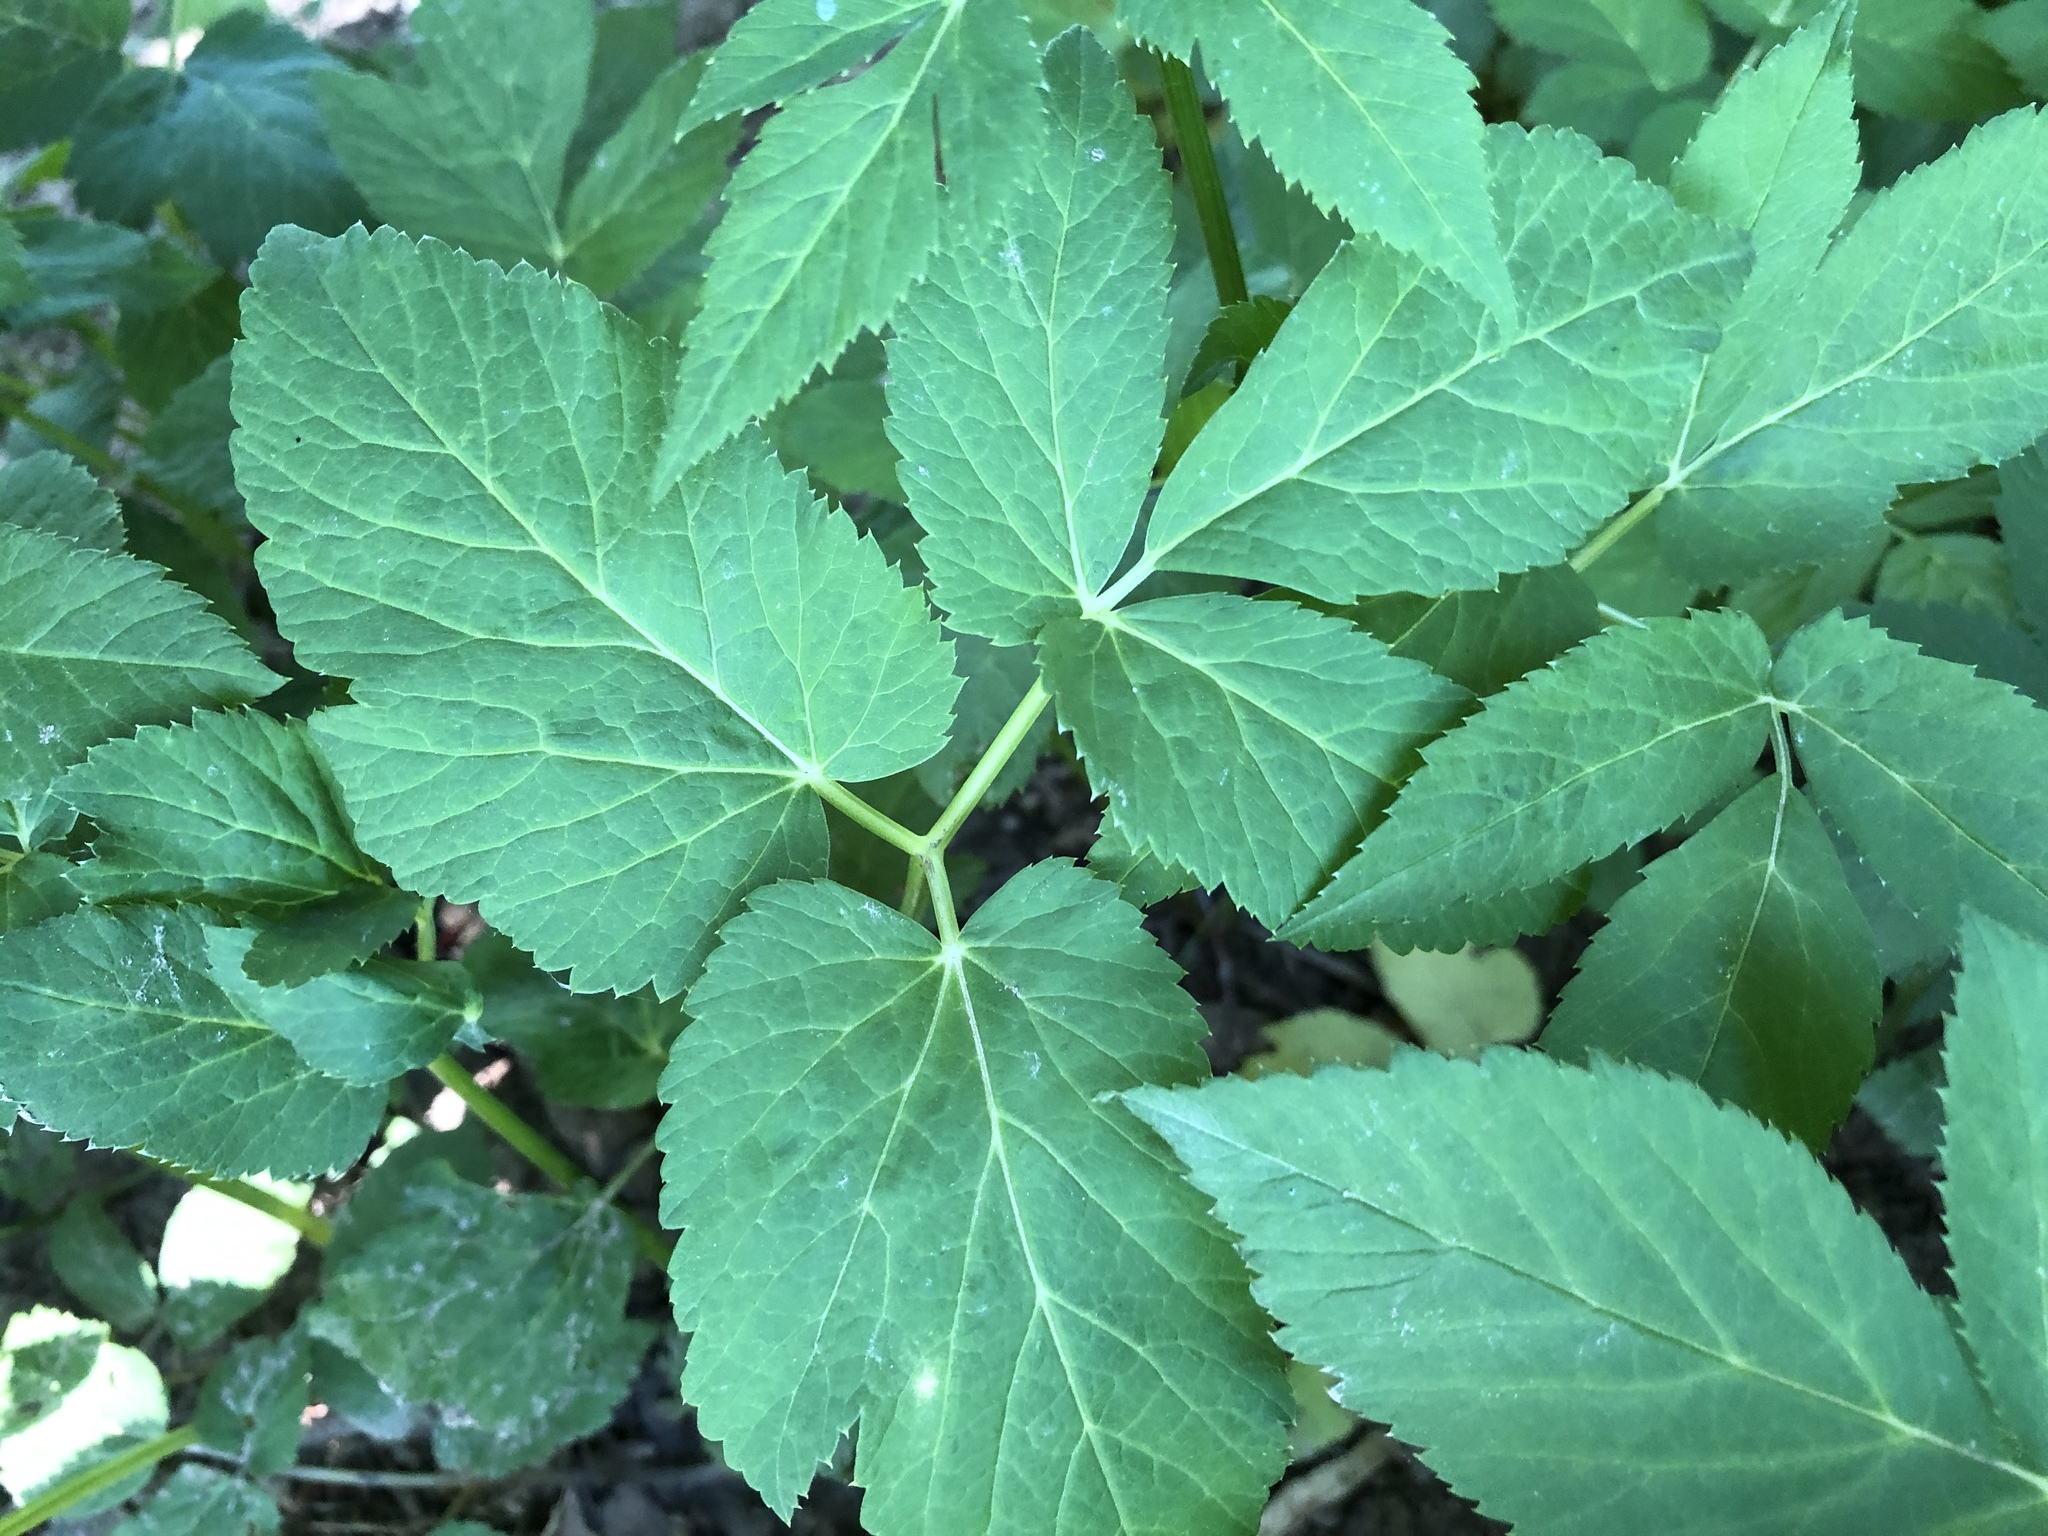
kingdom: Plantae
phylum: Tracheophyta
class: Magnoliopsida
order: Apiales
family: Apiaceae
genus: Aegopodium
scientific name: Aegopodium podagraria
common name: Ground-elder
